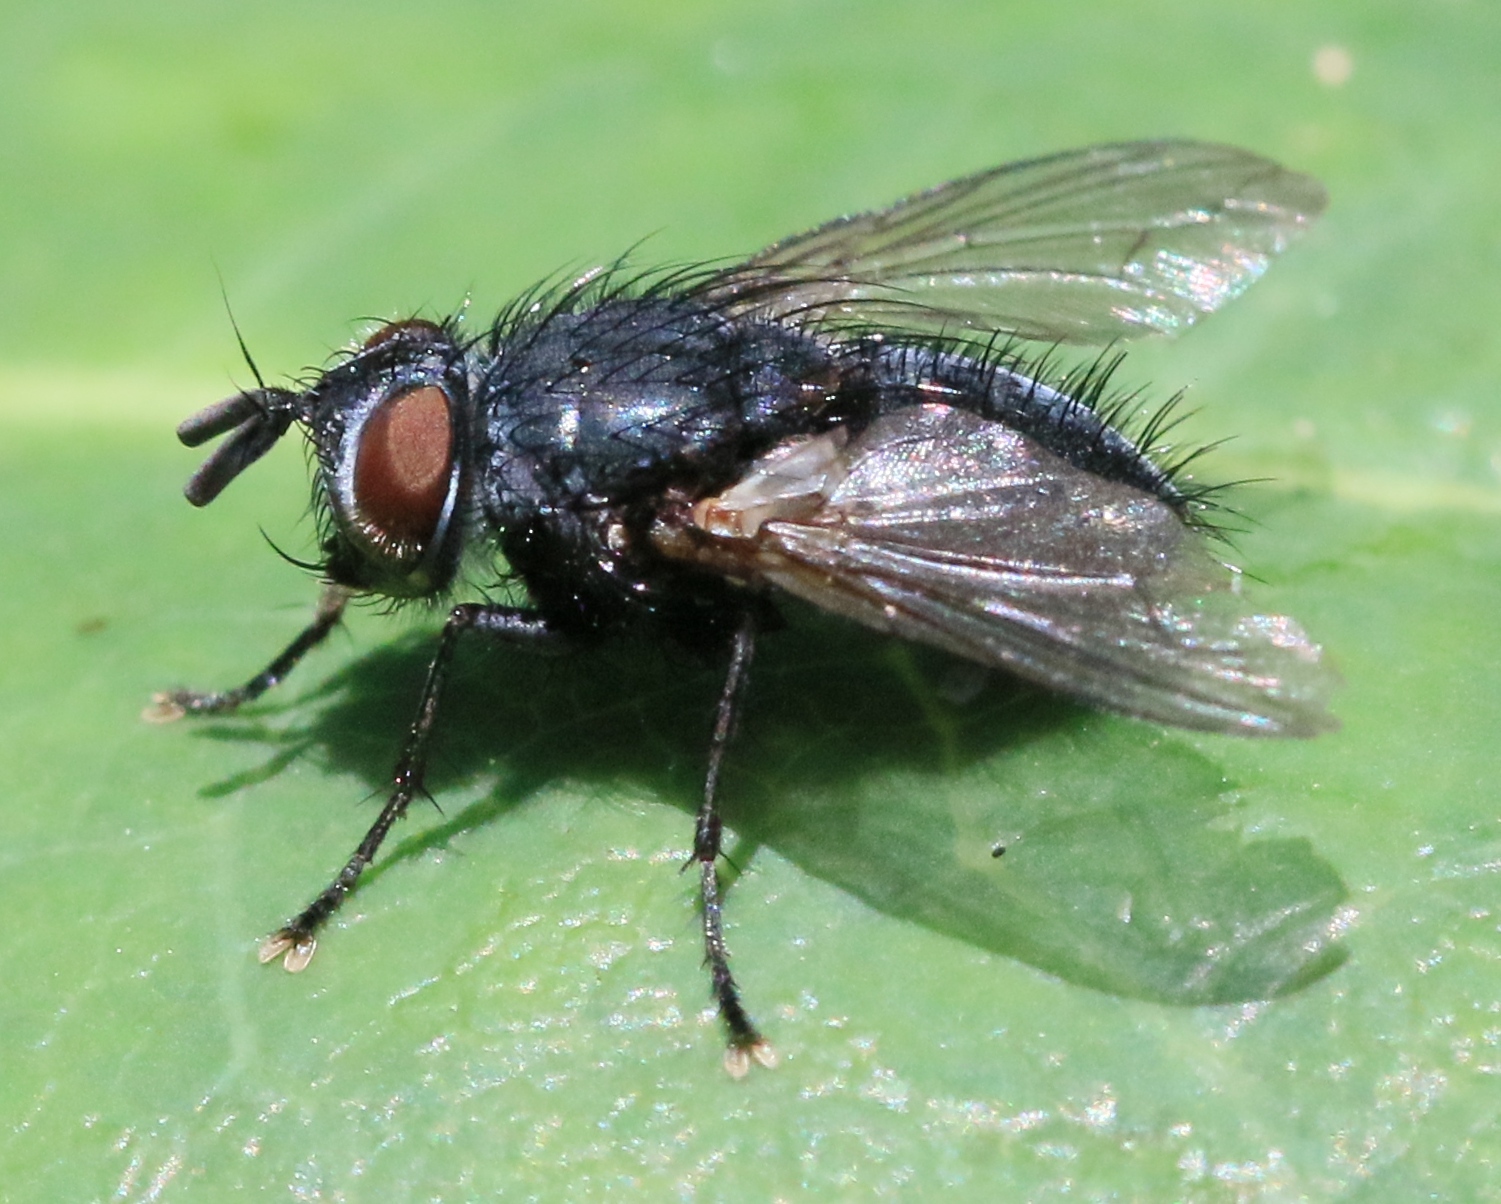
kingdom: Animalia
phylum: Arthropoda
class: Insecta
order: Diptera
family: Tachinidae
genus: Pales
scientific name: Pales pavida
